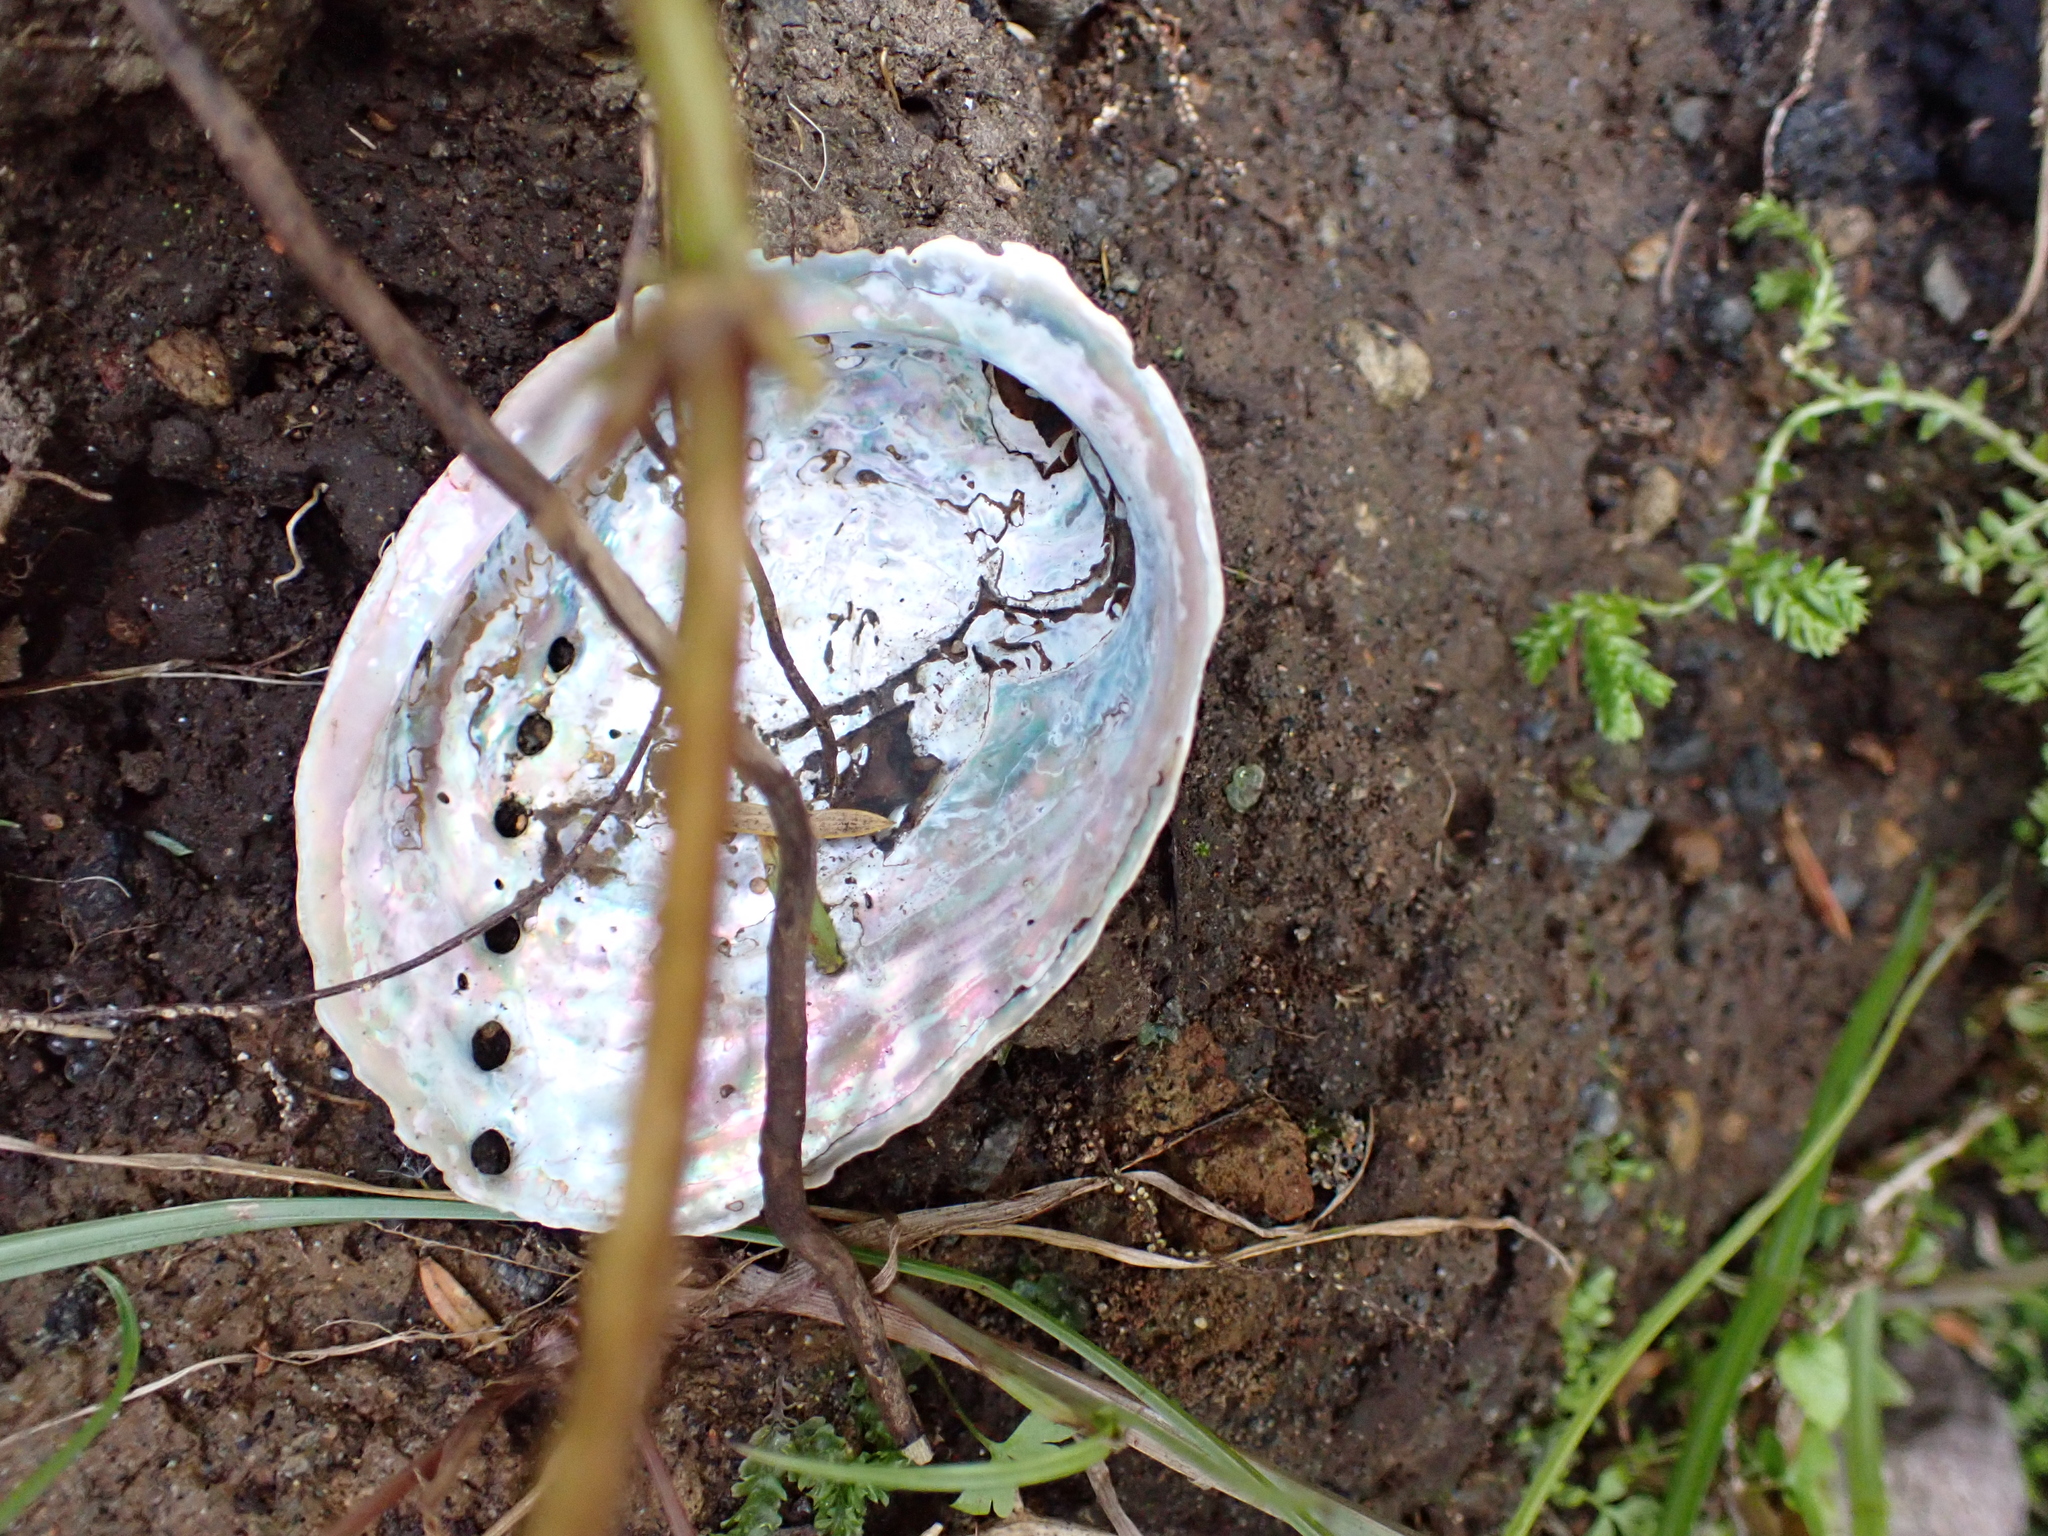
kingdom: Animalia
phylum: Mollusca
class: Gastropoda
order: Lepetellida
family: Haliotidae
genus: Haliotis
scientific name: Haliotis iris
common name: Abalone
